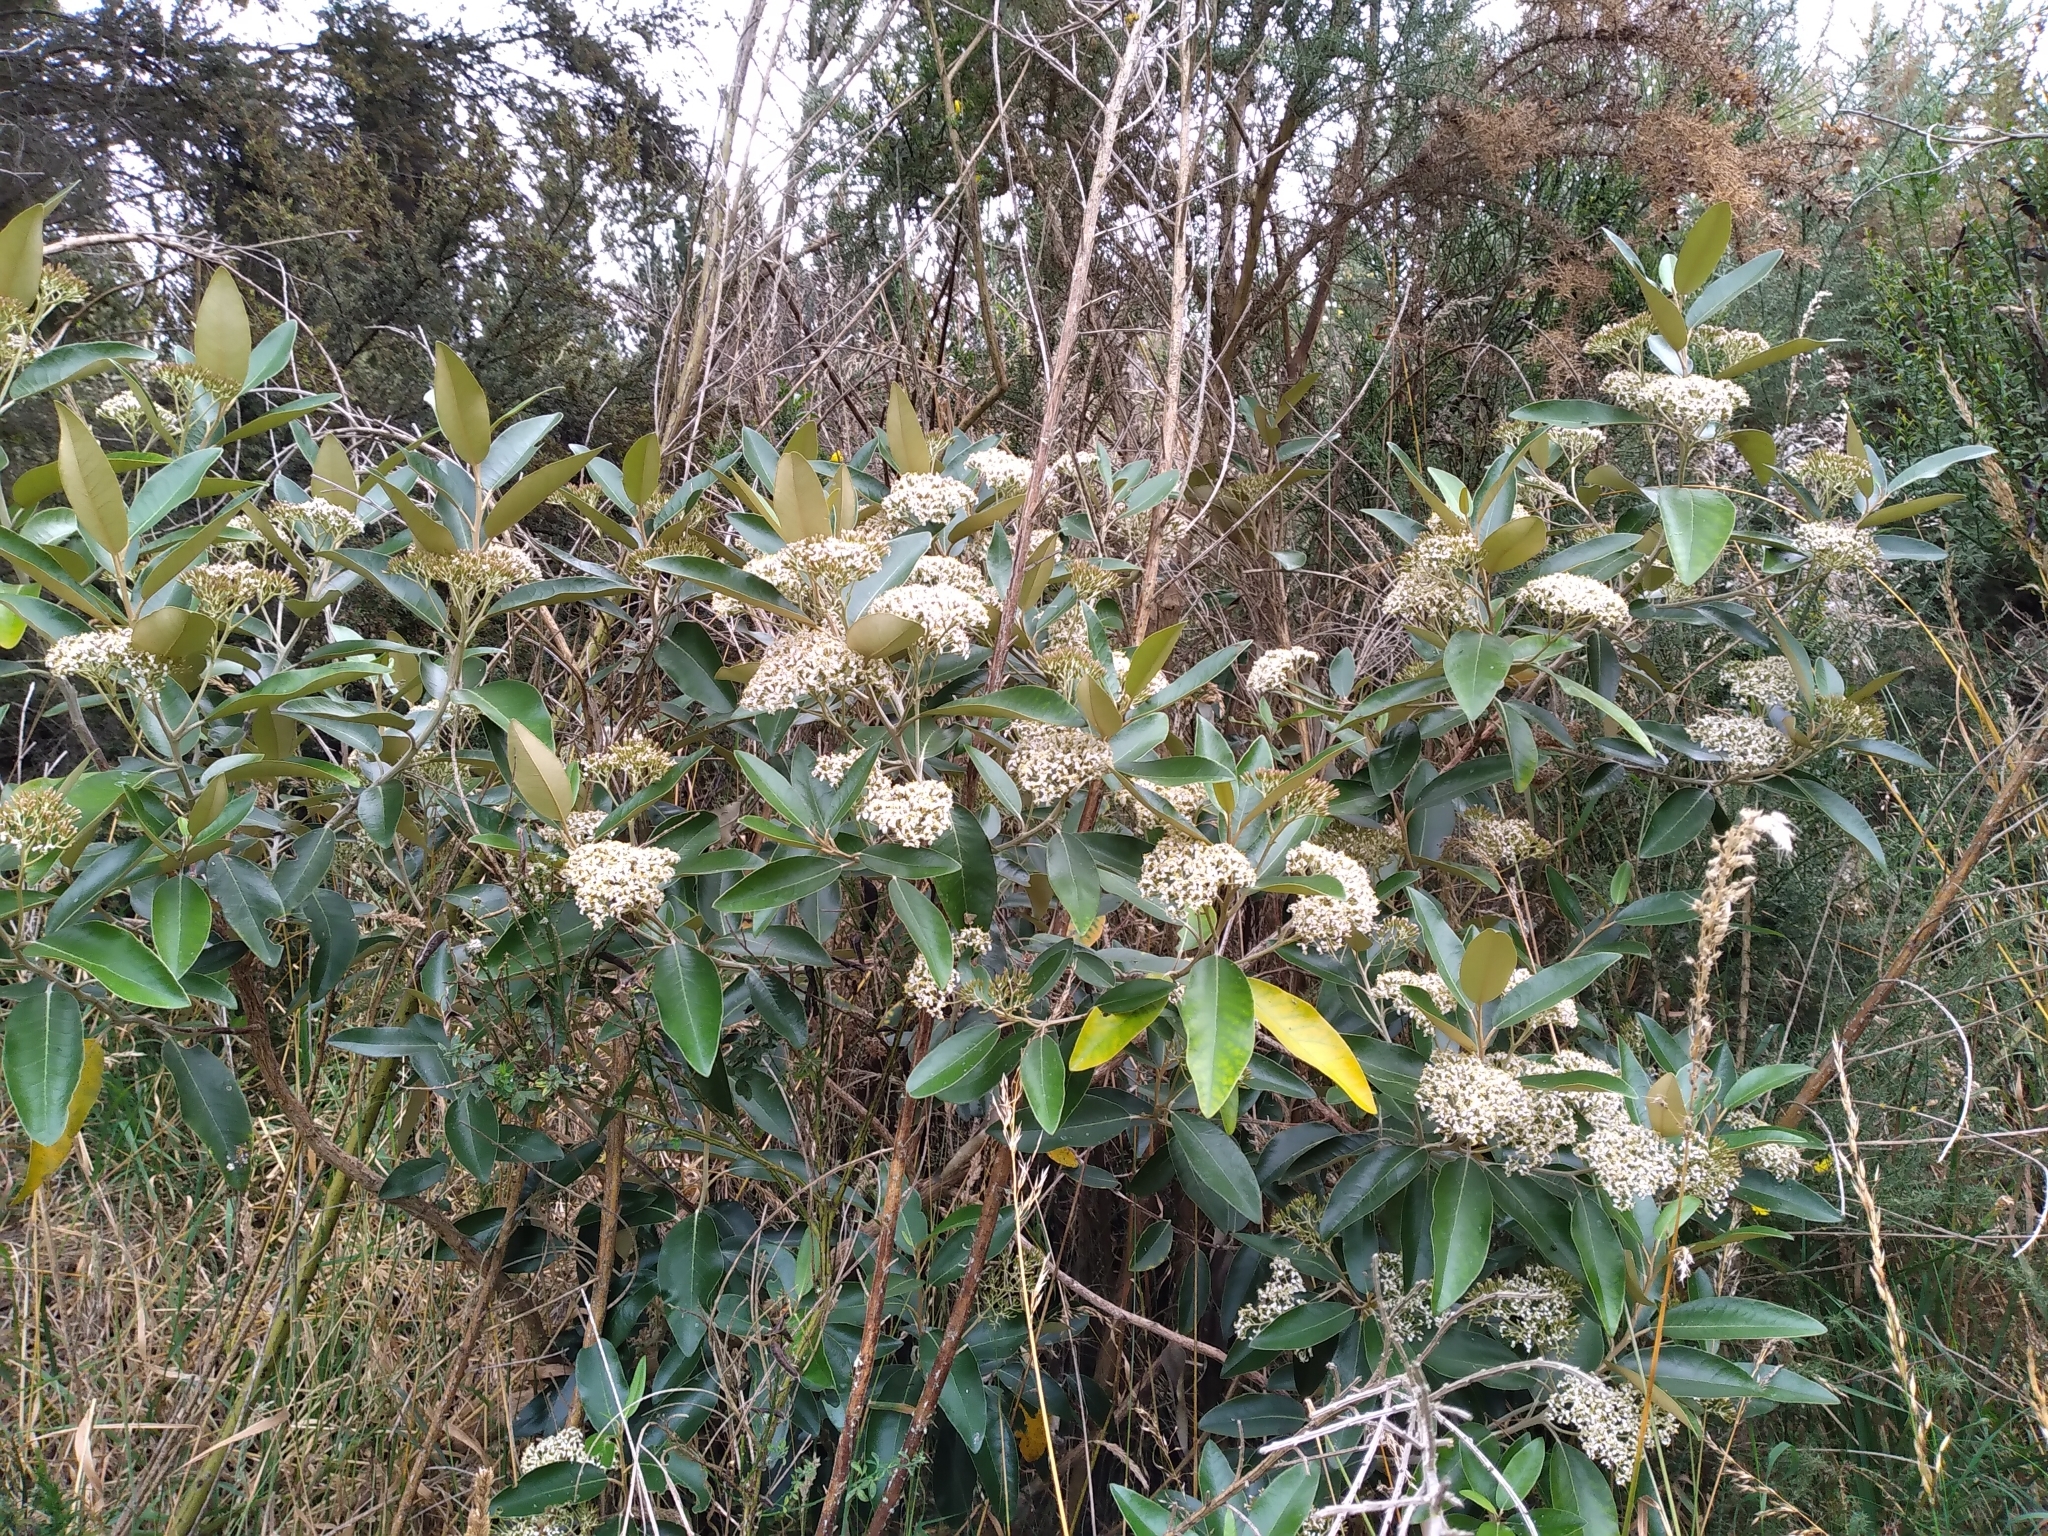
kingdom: Plantae
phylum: Tracheophyta
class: Magnoliopsida
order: Asterales
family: Asteraceae
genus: Olearia
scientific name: Olearia avicenniifolia
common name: Mangrove-leaf daisybush
